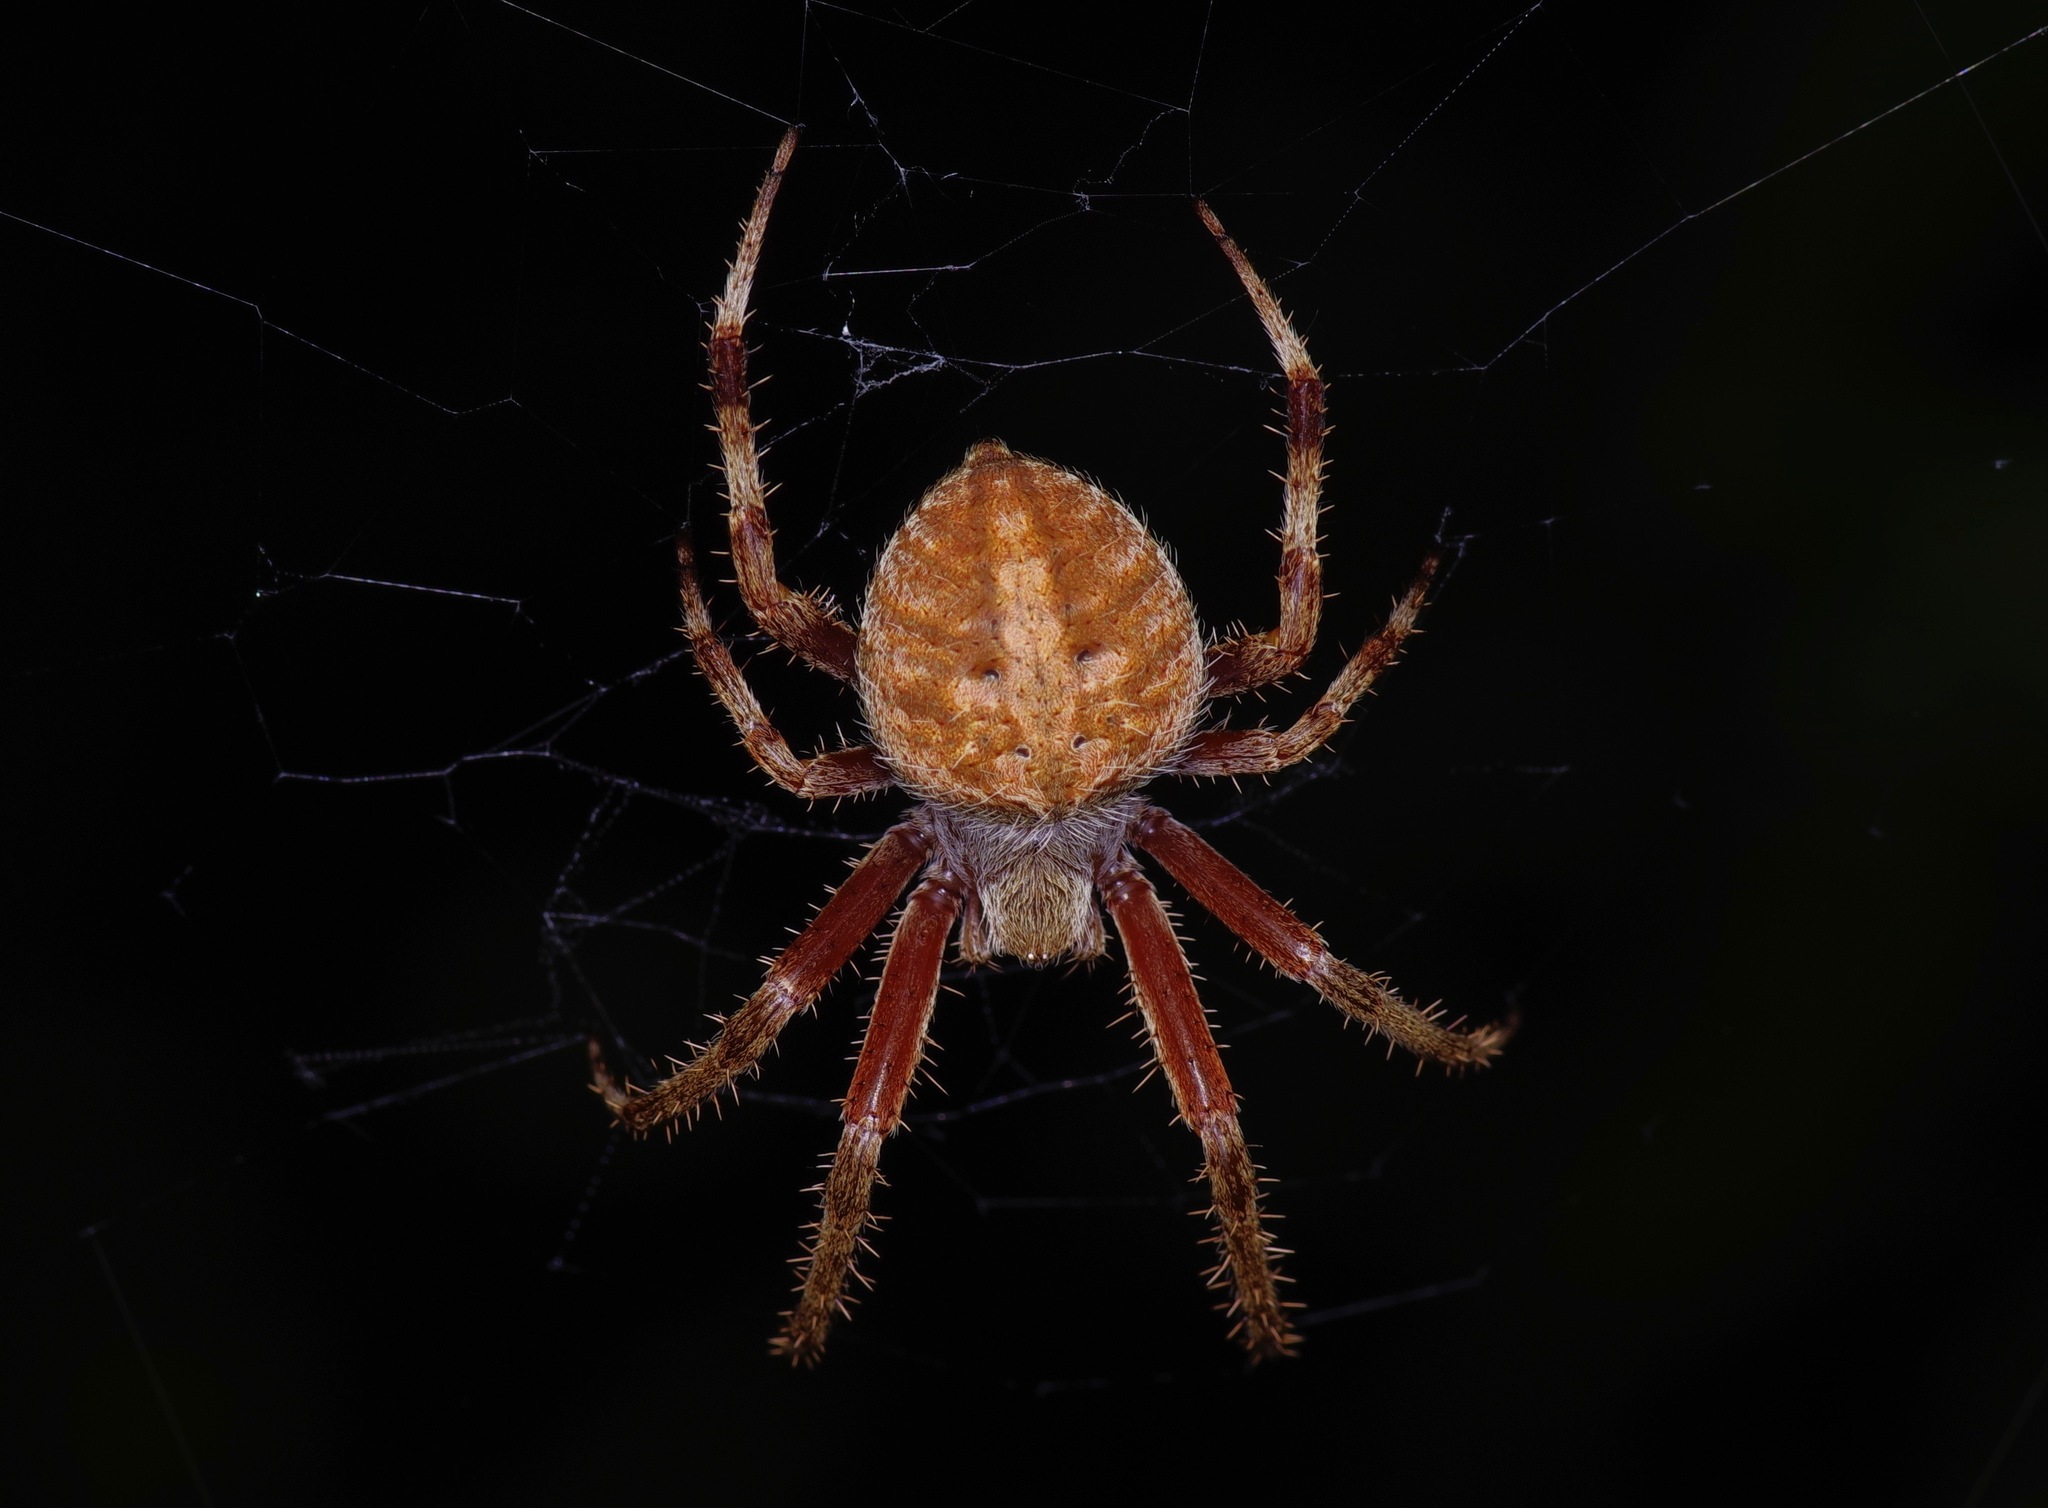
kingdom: Animalia
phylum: Arthropoda
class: Arachnida
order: Araneae
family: Araneidae
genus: Neoscona
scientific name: Neoscona crucifera
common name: Spotted orbweaver
